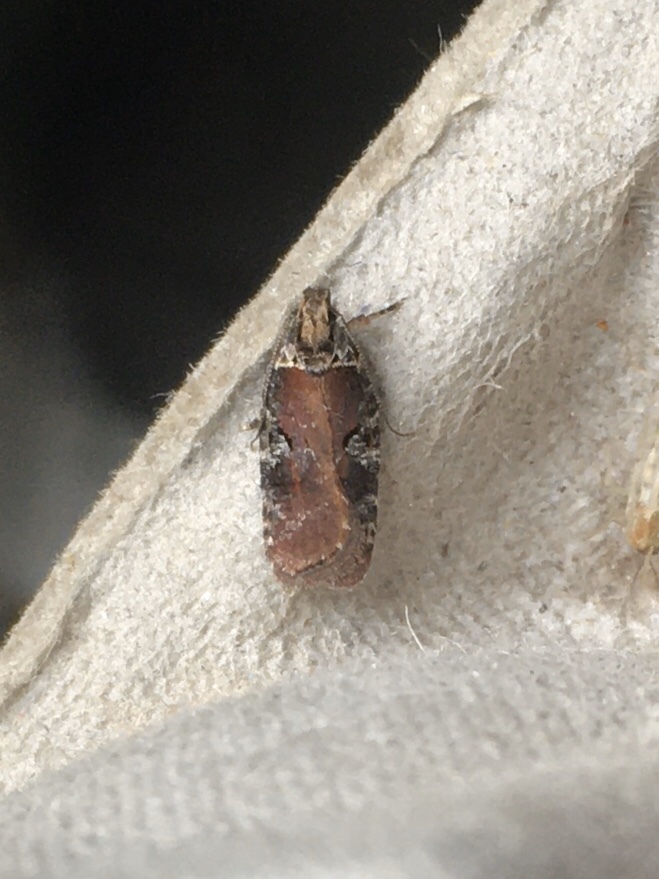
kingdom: Animalia
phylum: Arthropoda
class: Insecta
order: Lepidoptera
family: Depressariidae
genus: Agonopterix
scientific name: Agonopterix lythrella
